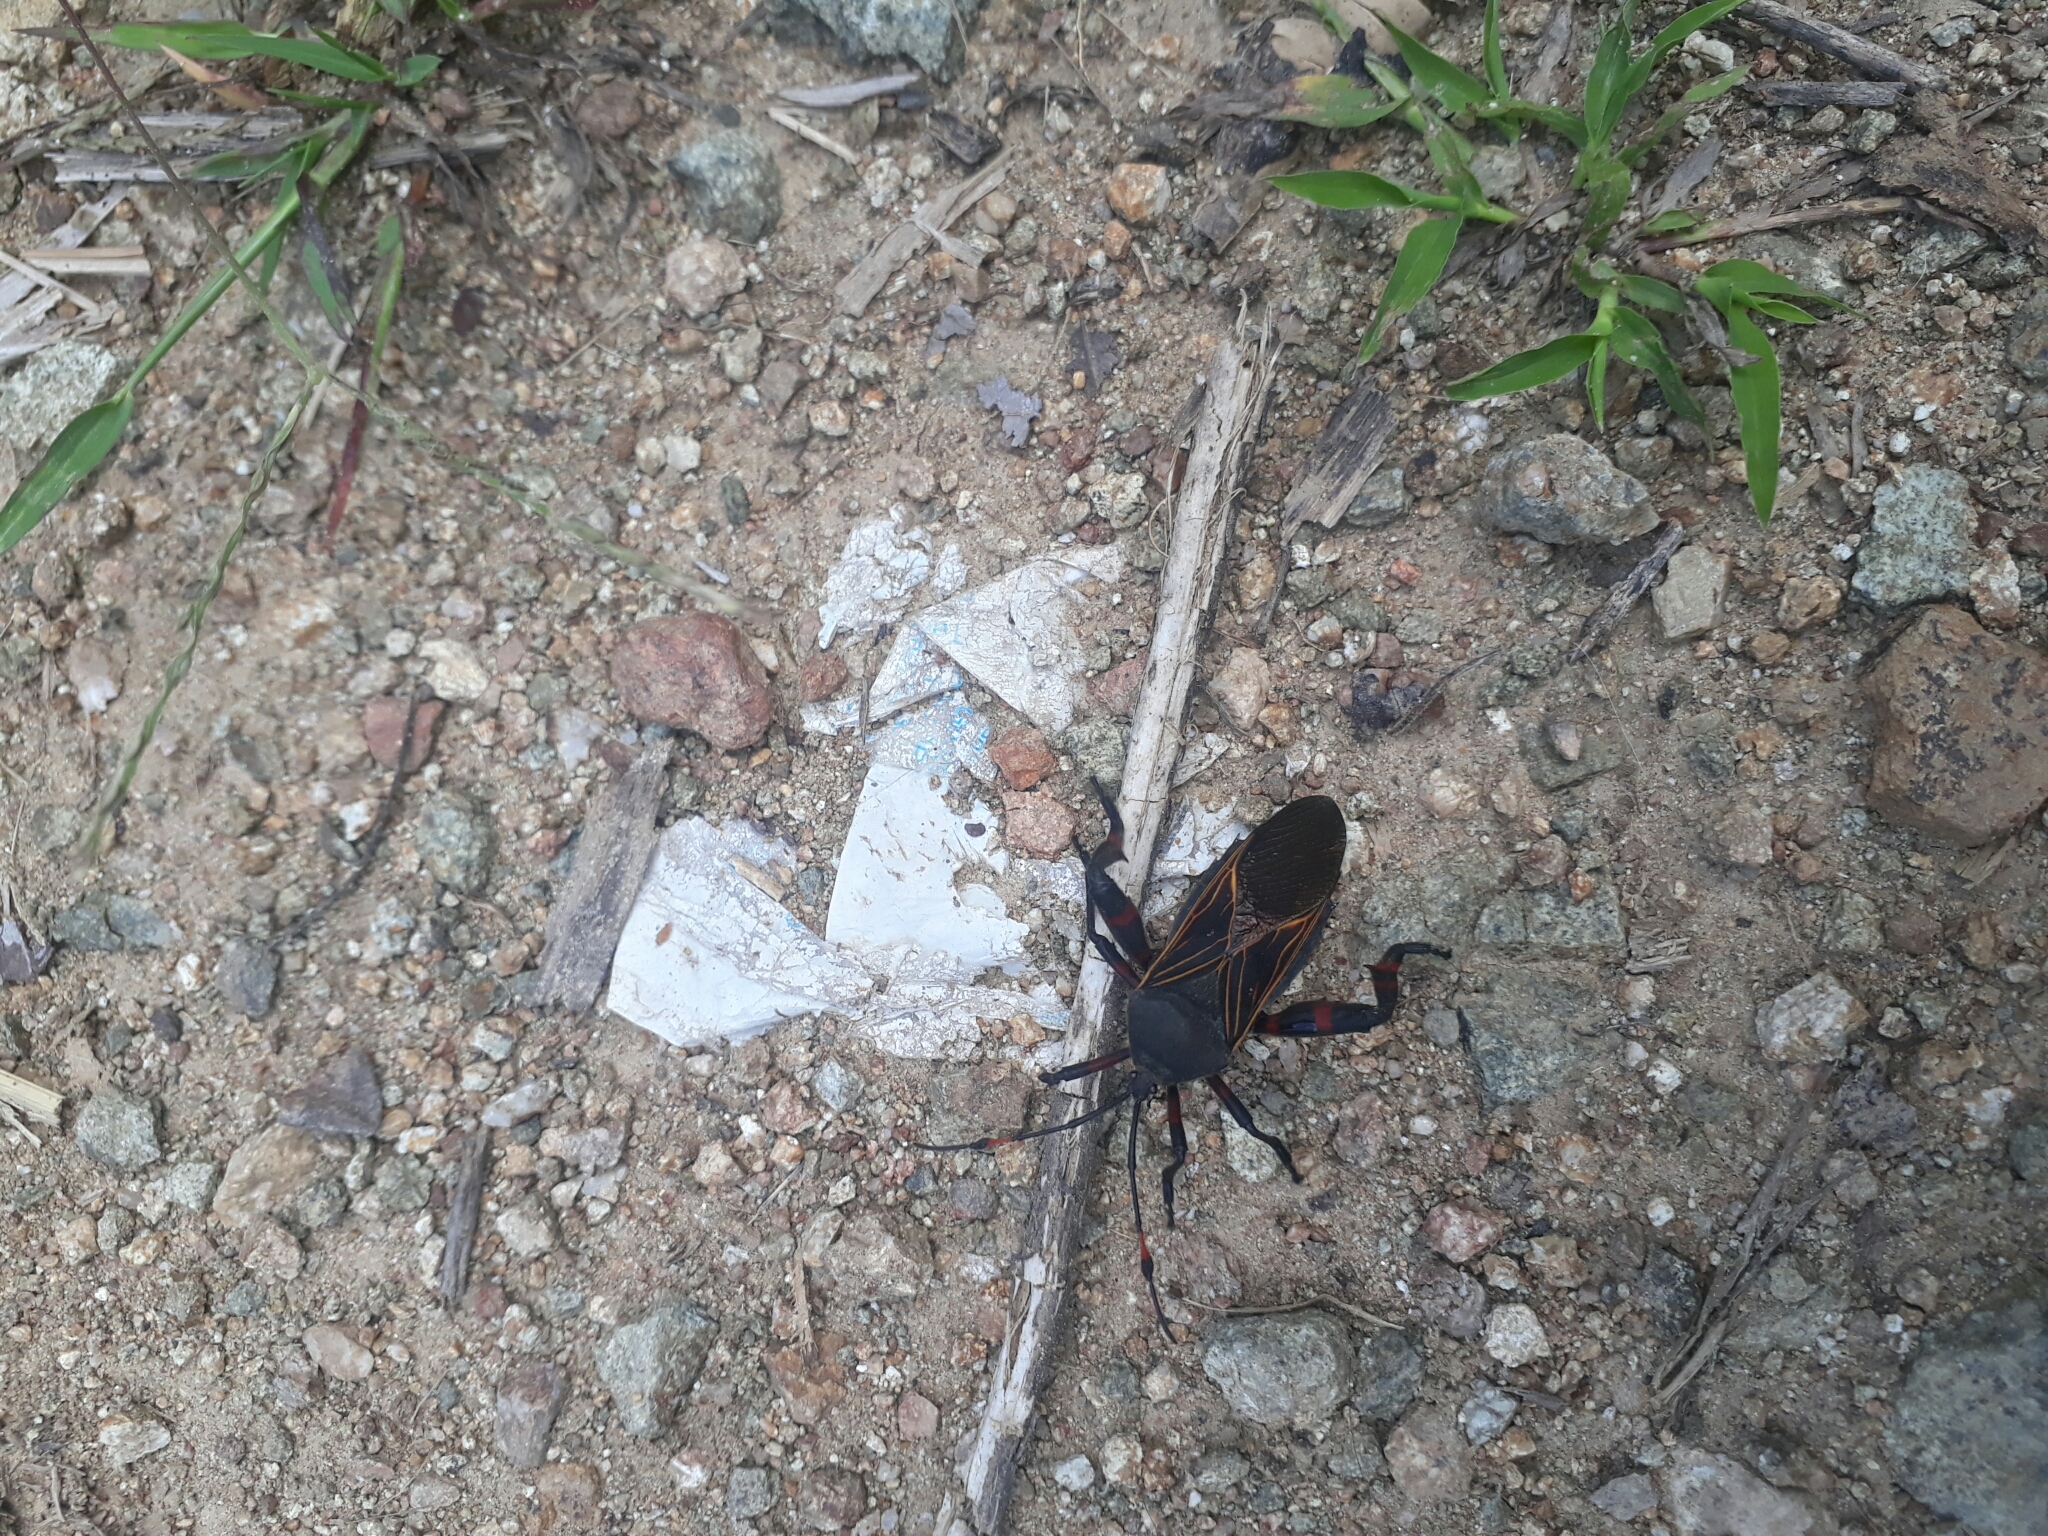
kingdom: Animalia
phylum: Arthropoda
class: Insecta
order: Hemiptera
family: Coreidae
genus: Thasus
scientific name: Thasus
